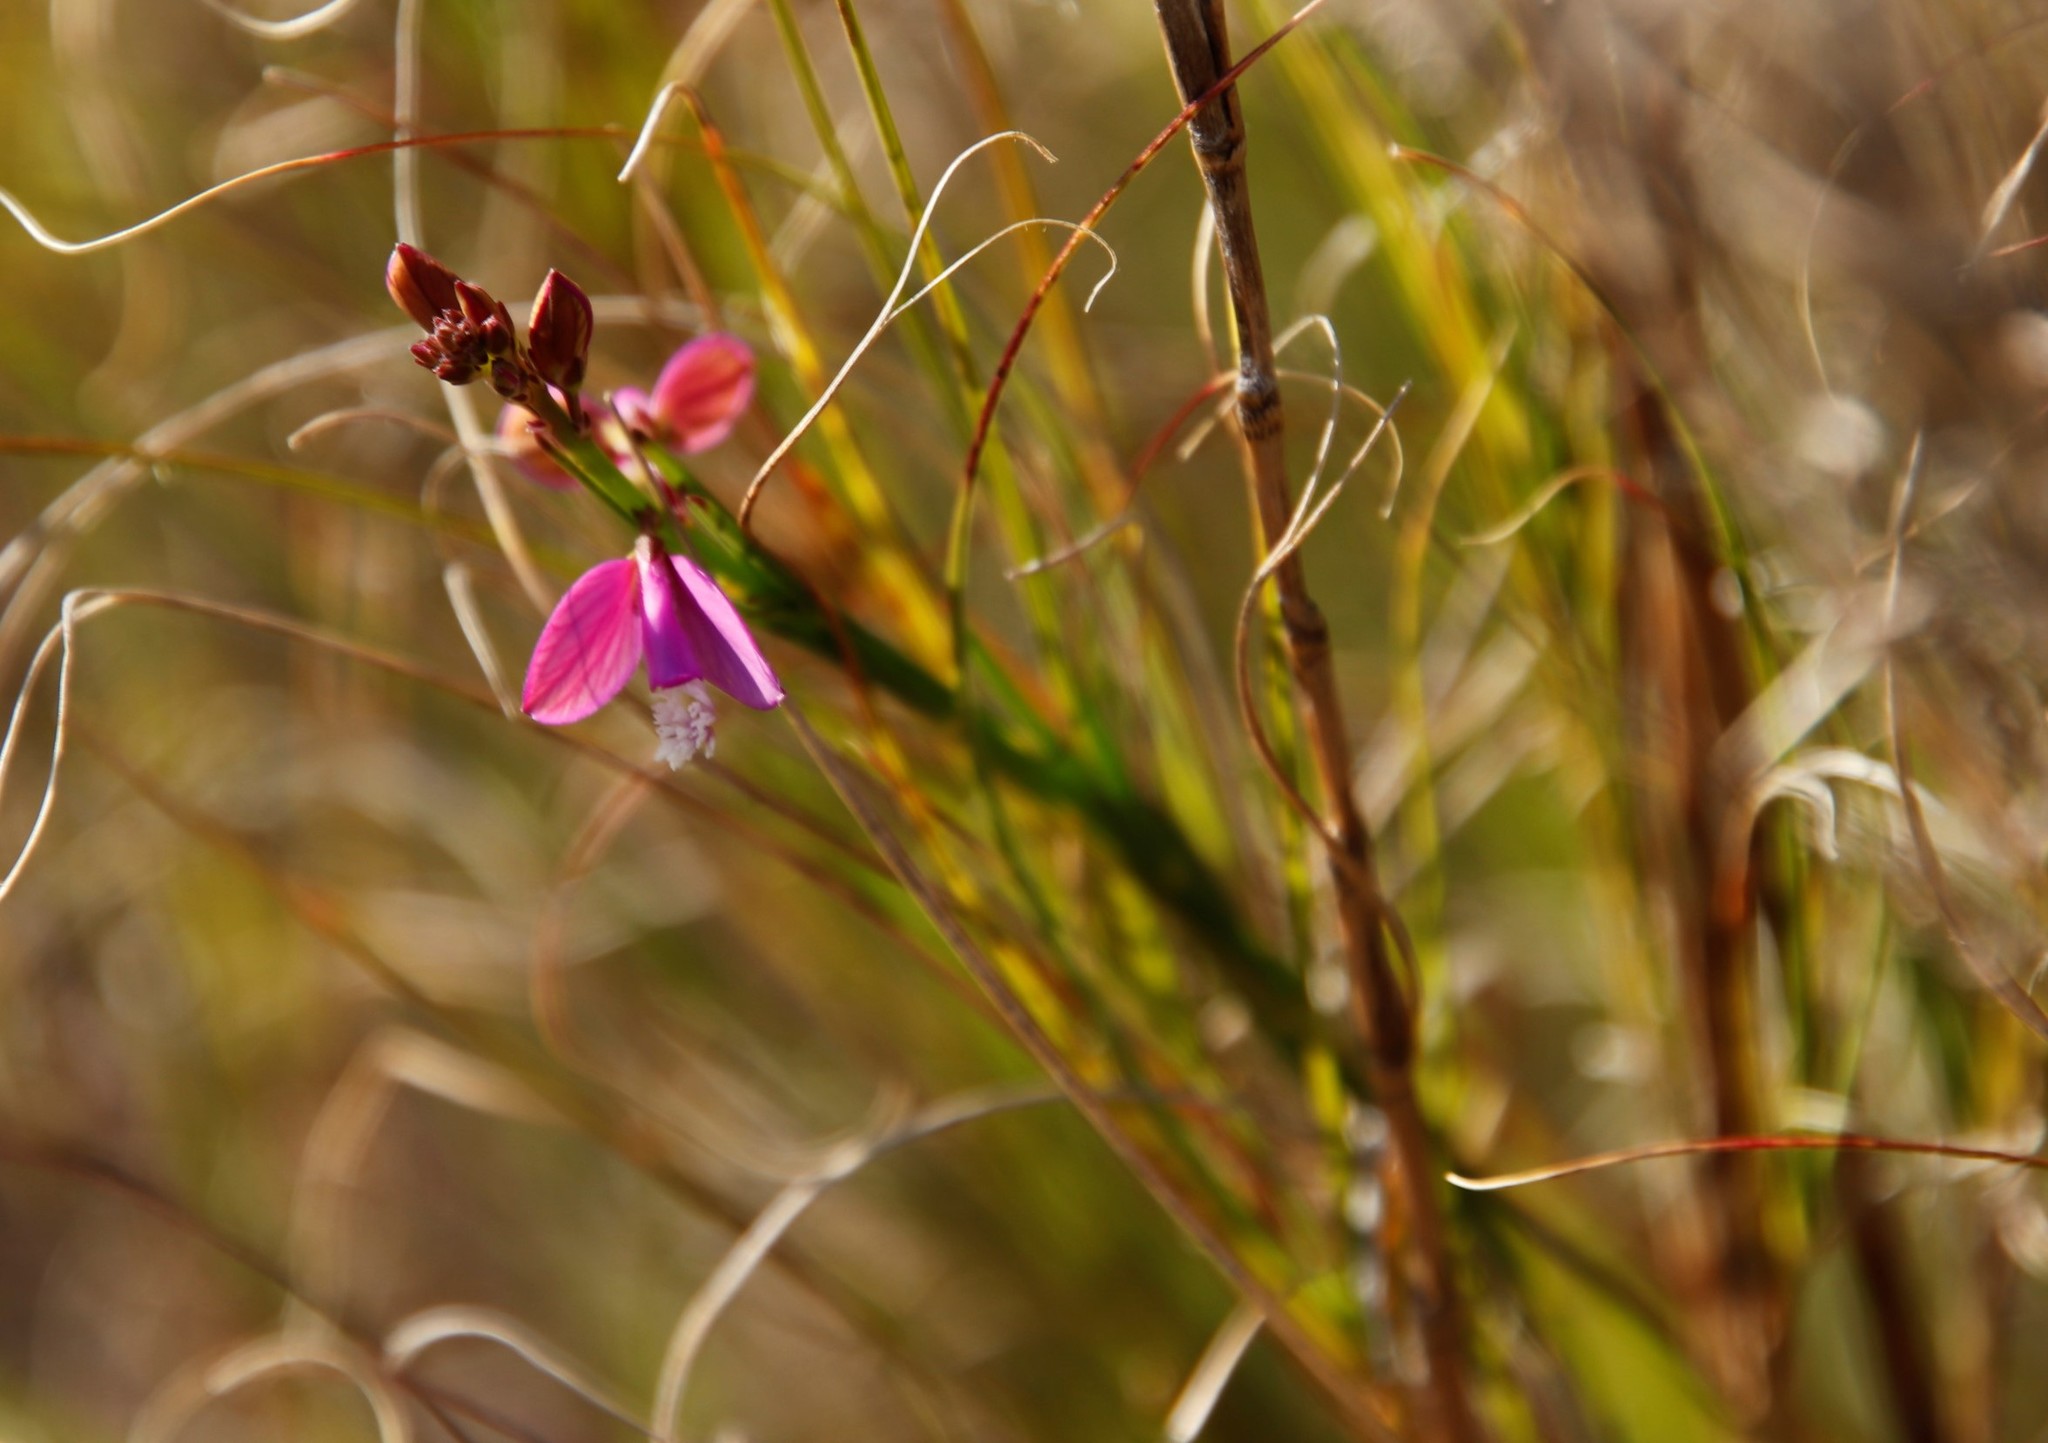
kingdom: Plantae
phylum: Tracheophyta
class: Magnoliopsida
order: Fabales
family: Polygalaceae
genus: Polygala
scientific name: Polygala garcini
